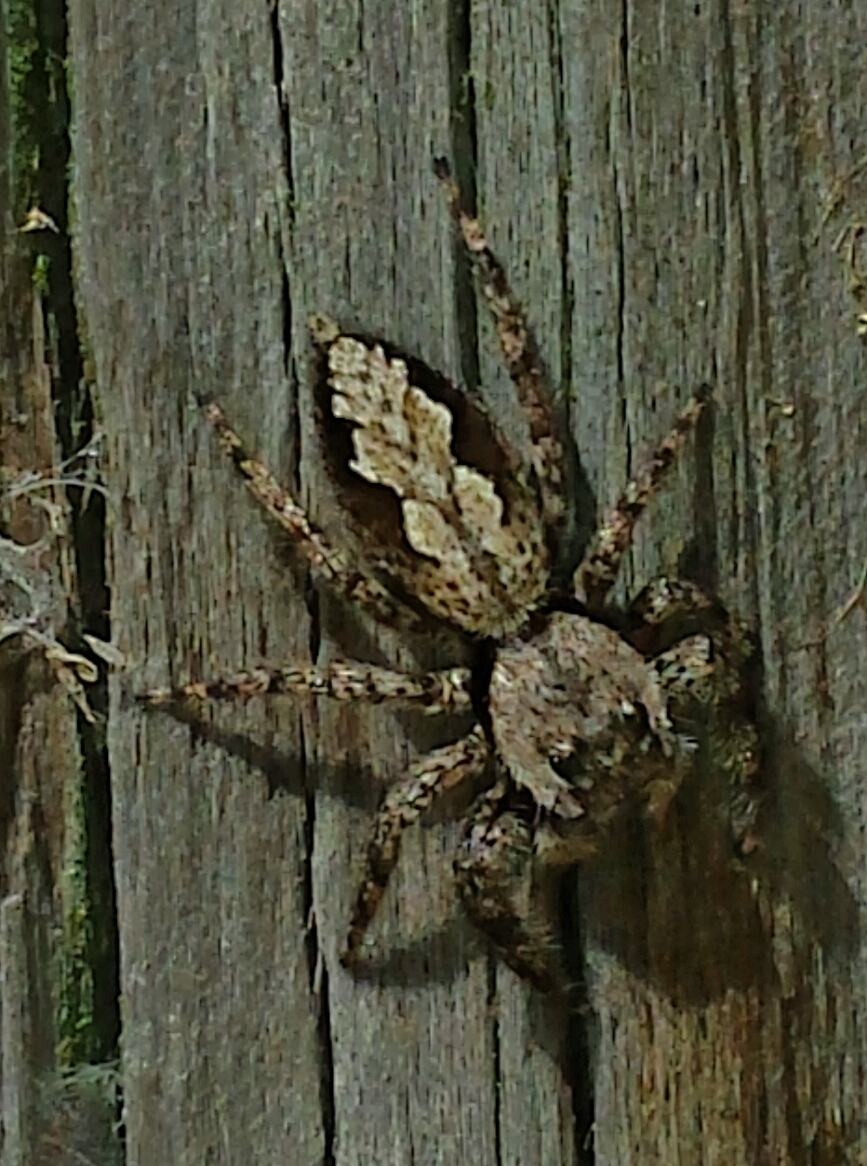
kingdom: Animalia
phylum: Arthropoda
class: Arachnida
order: Araneae
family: Salticidae
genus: Platycryptus
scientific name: Platycryptus undatus
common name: Tan jumping spider
